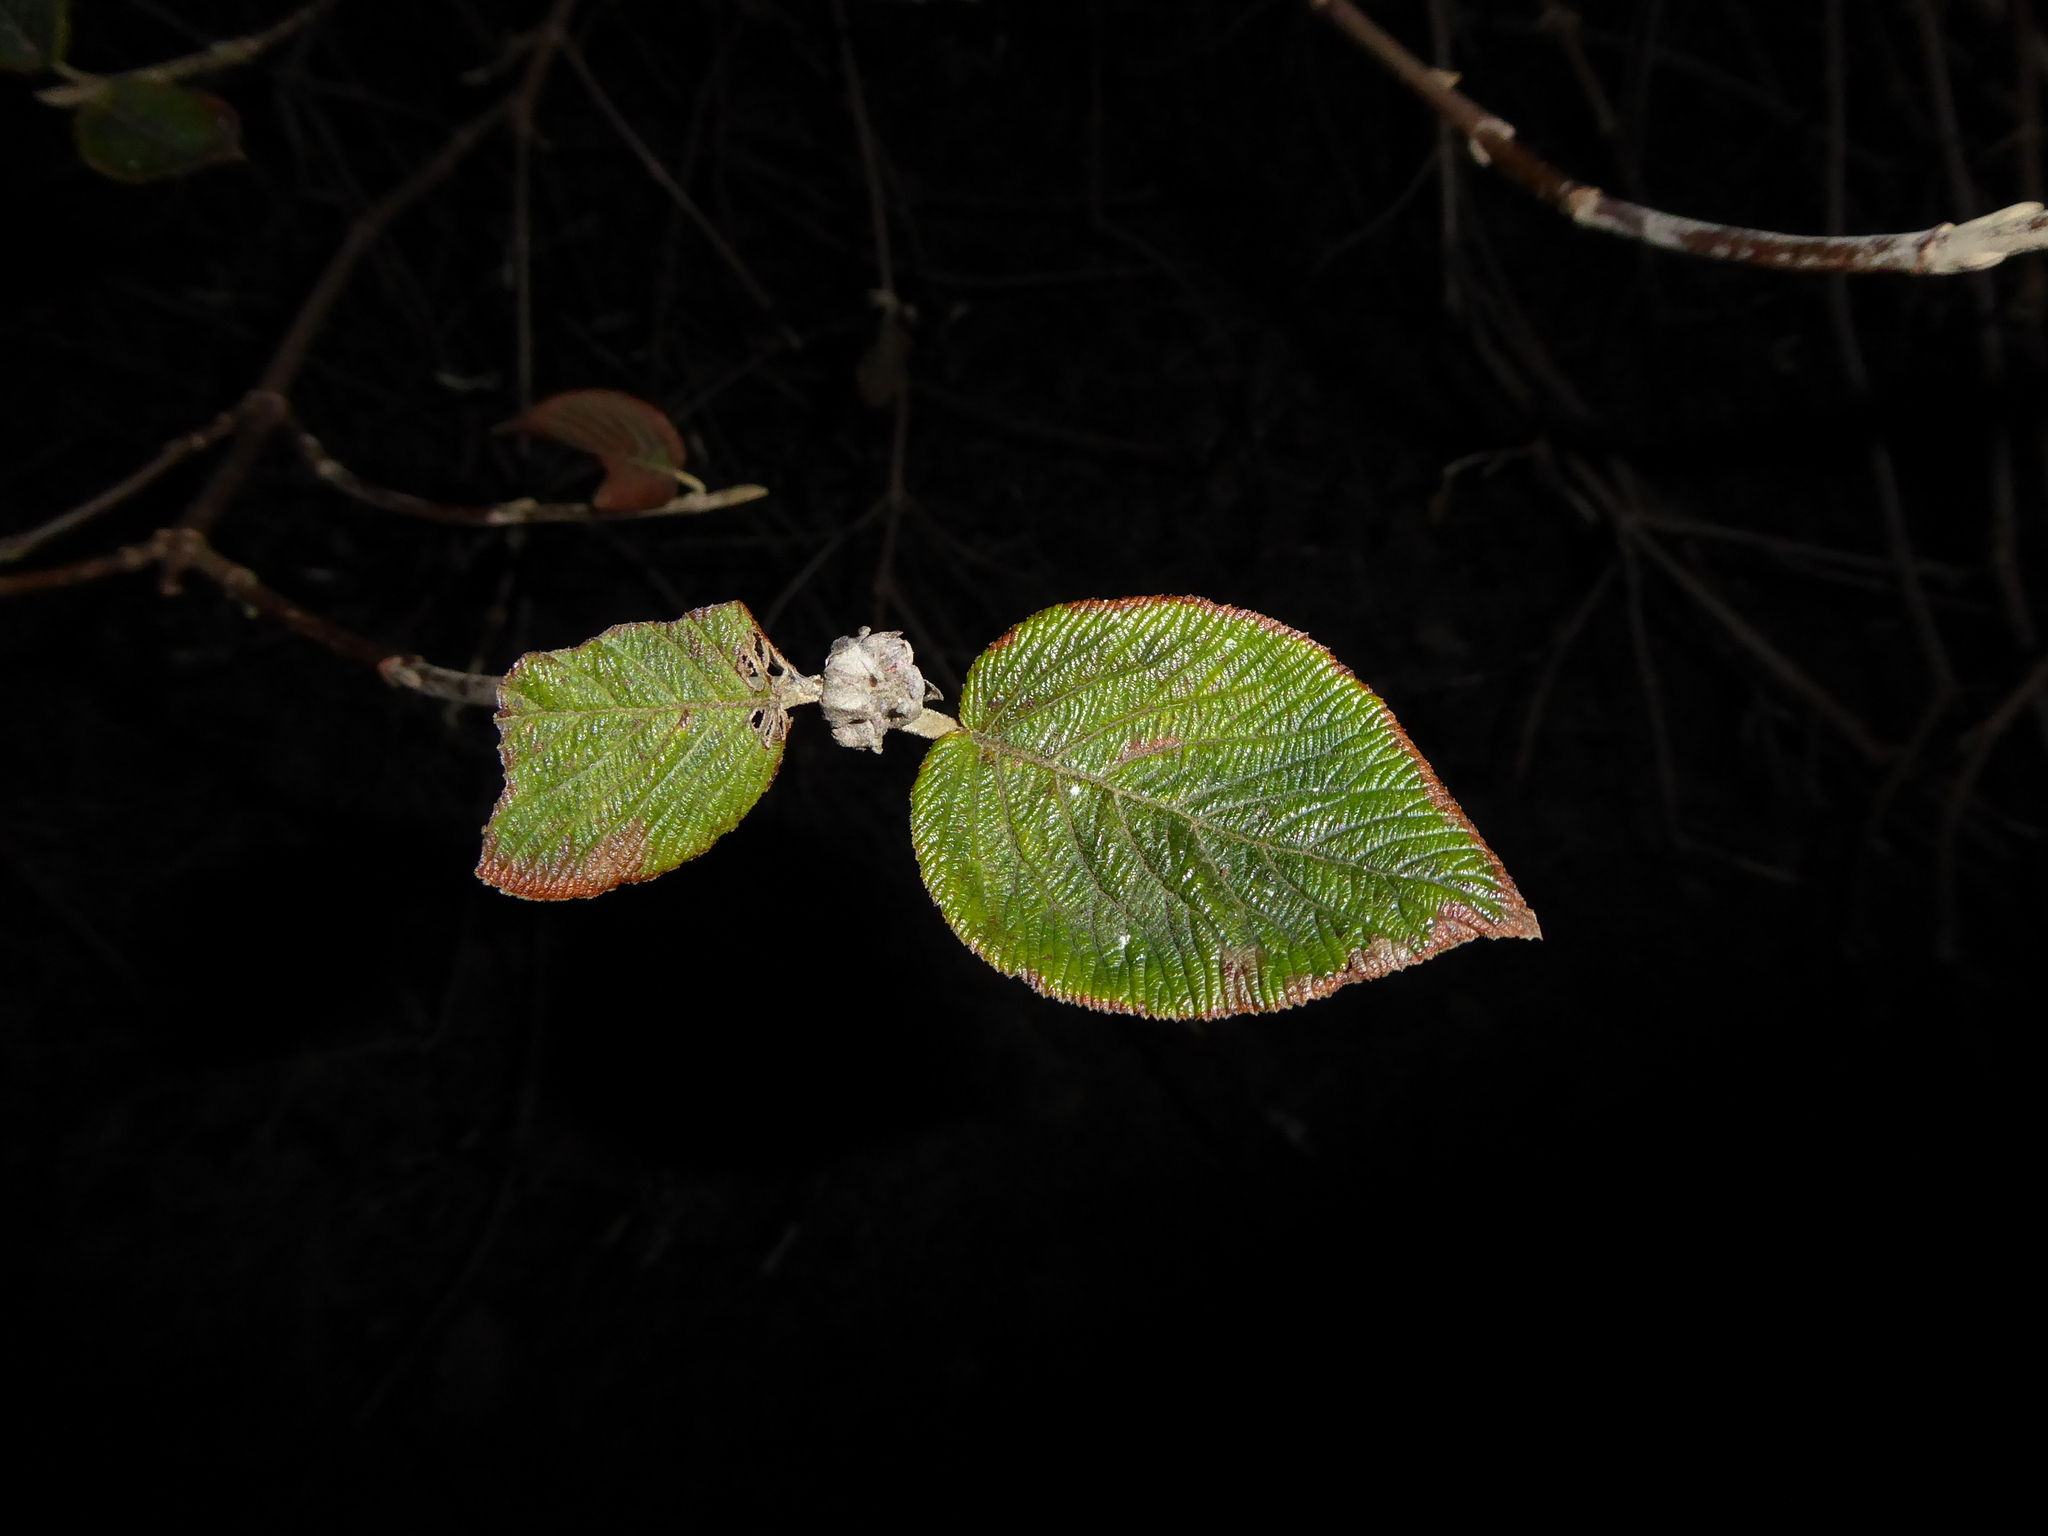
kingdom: Plantae
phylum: Tracheophyta
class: Magnoliopsida
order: Dipsacales
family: Viburnaceae
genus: Viburnum
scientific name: Viburnum lantana
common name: Wayfaring tree
